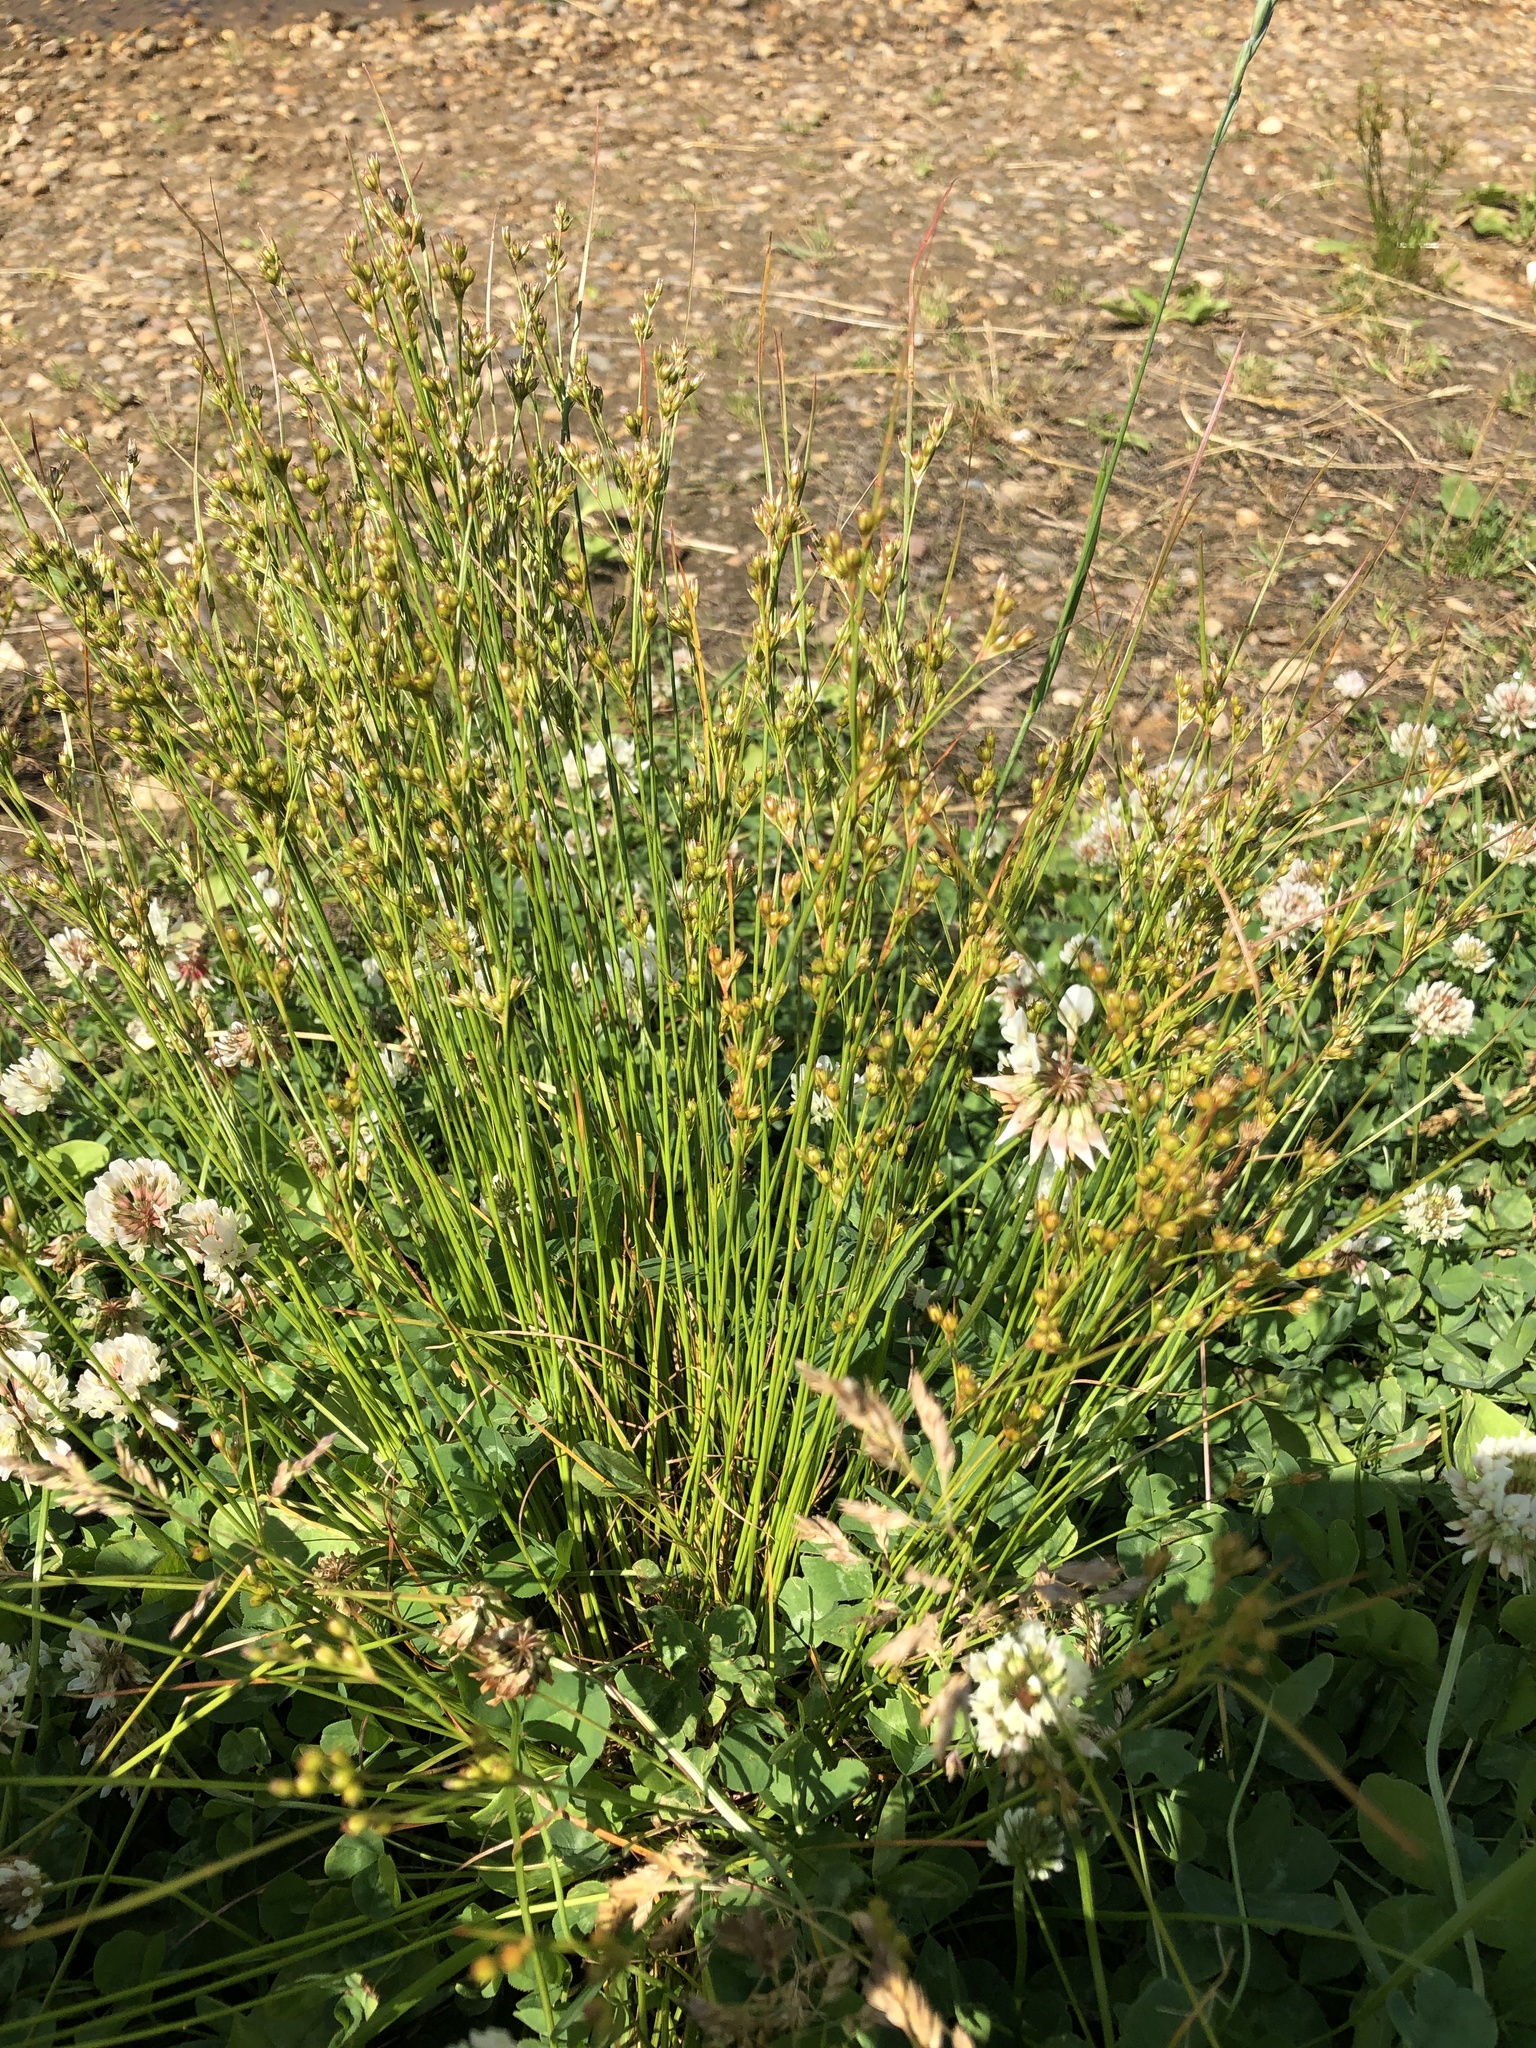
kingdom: Plantae
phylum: Tracheophyta
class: Liliopsida
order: Poales
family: Juncaceae
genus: Juncus
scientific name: Juncus tenuis
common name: Slender rush
